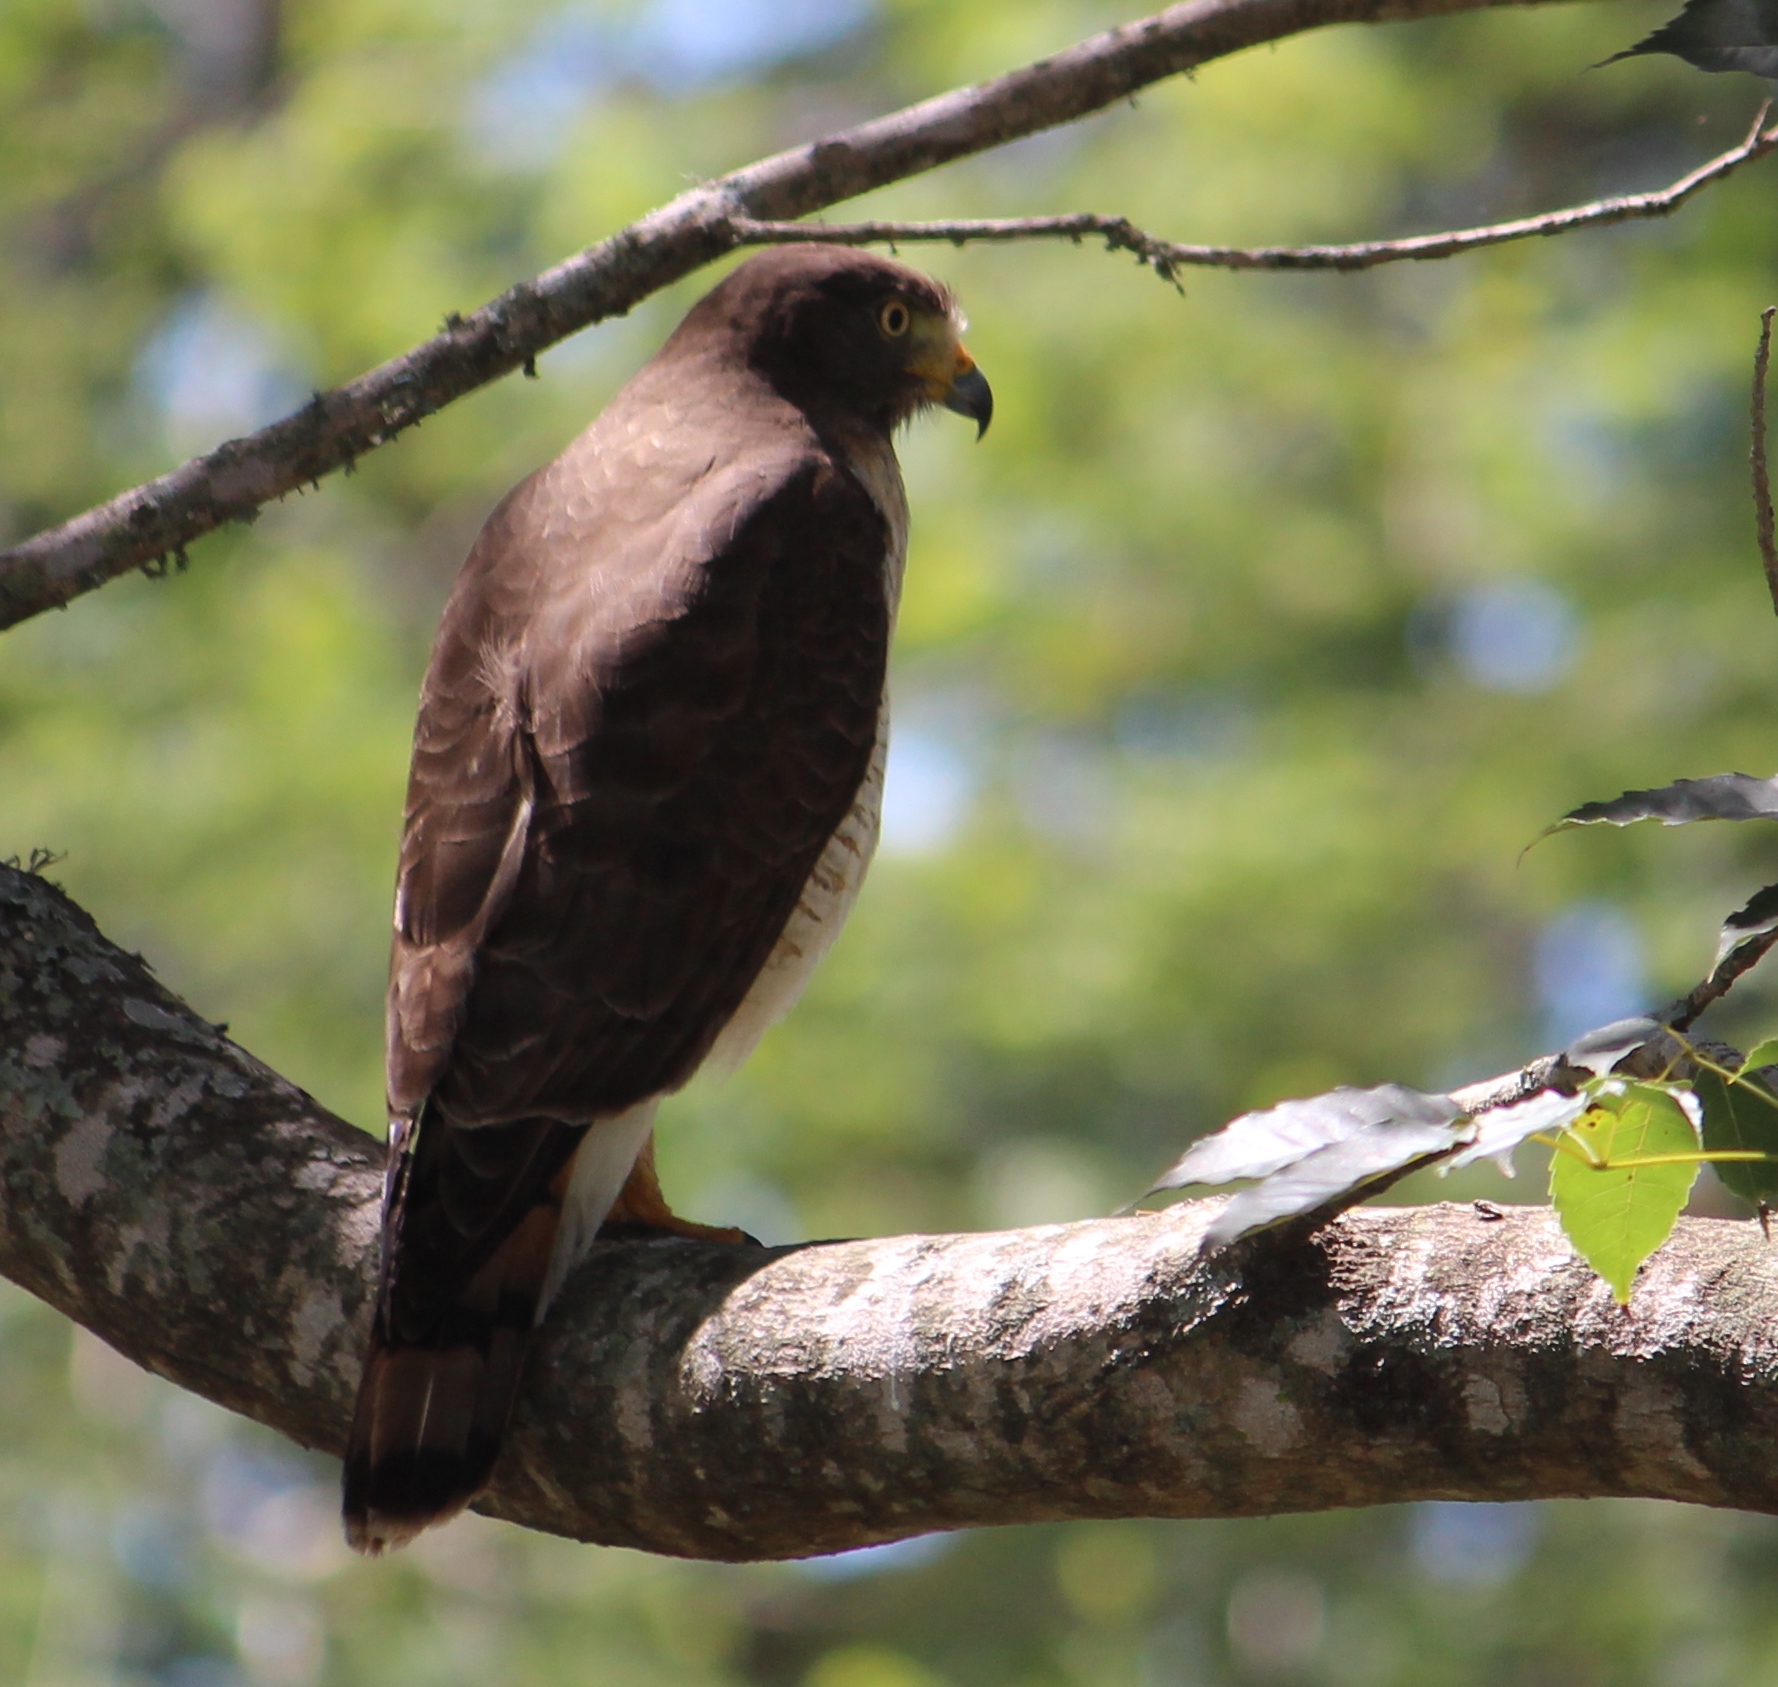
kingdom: Animalia
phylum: Chordata
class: Aves
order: Accipitriformes
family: Accipitridae
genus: Rupornis
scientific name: Rupornis magnirostris
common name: Roadside hawk
